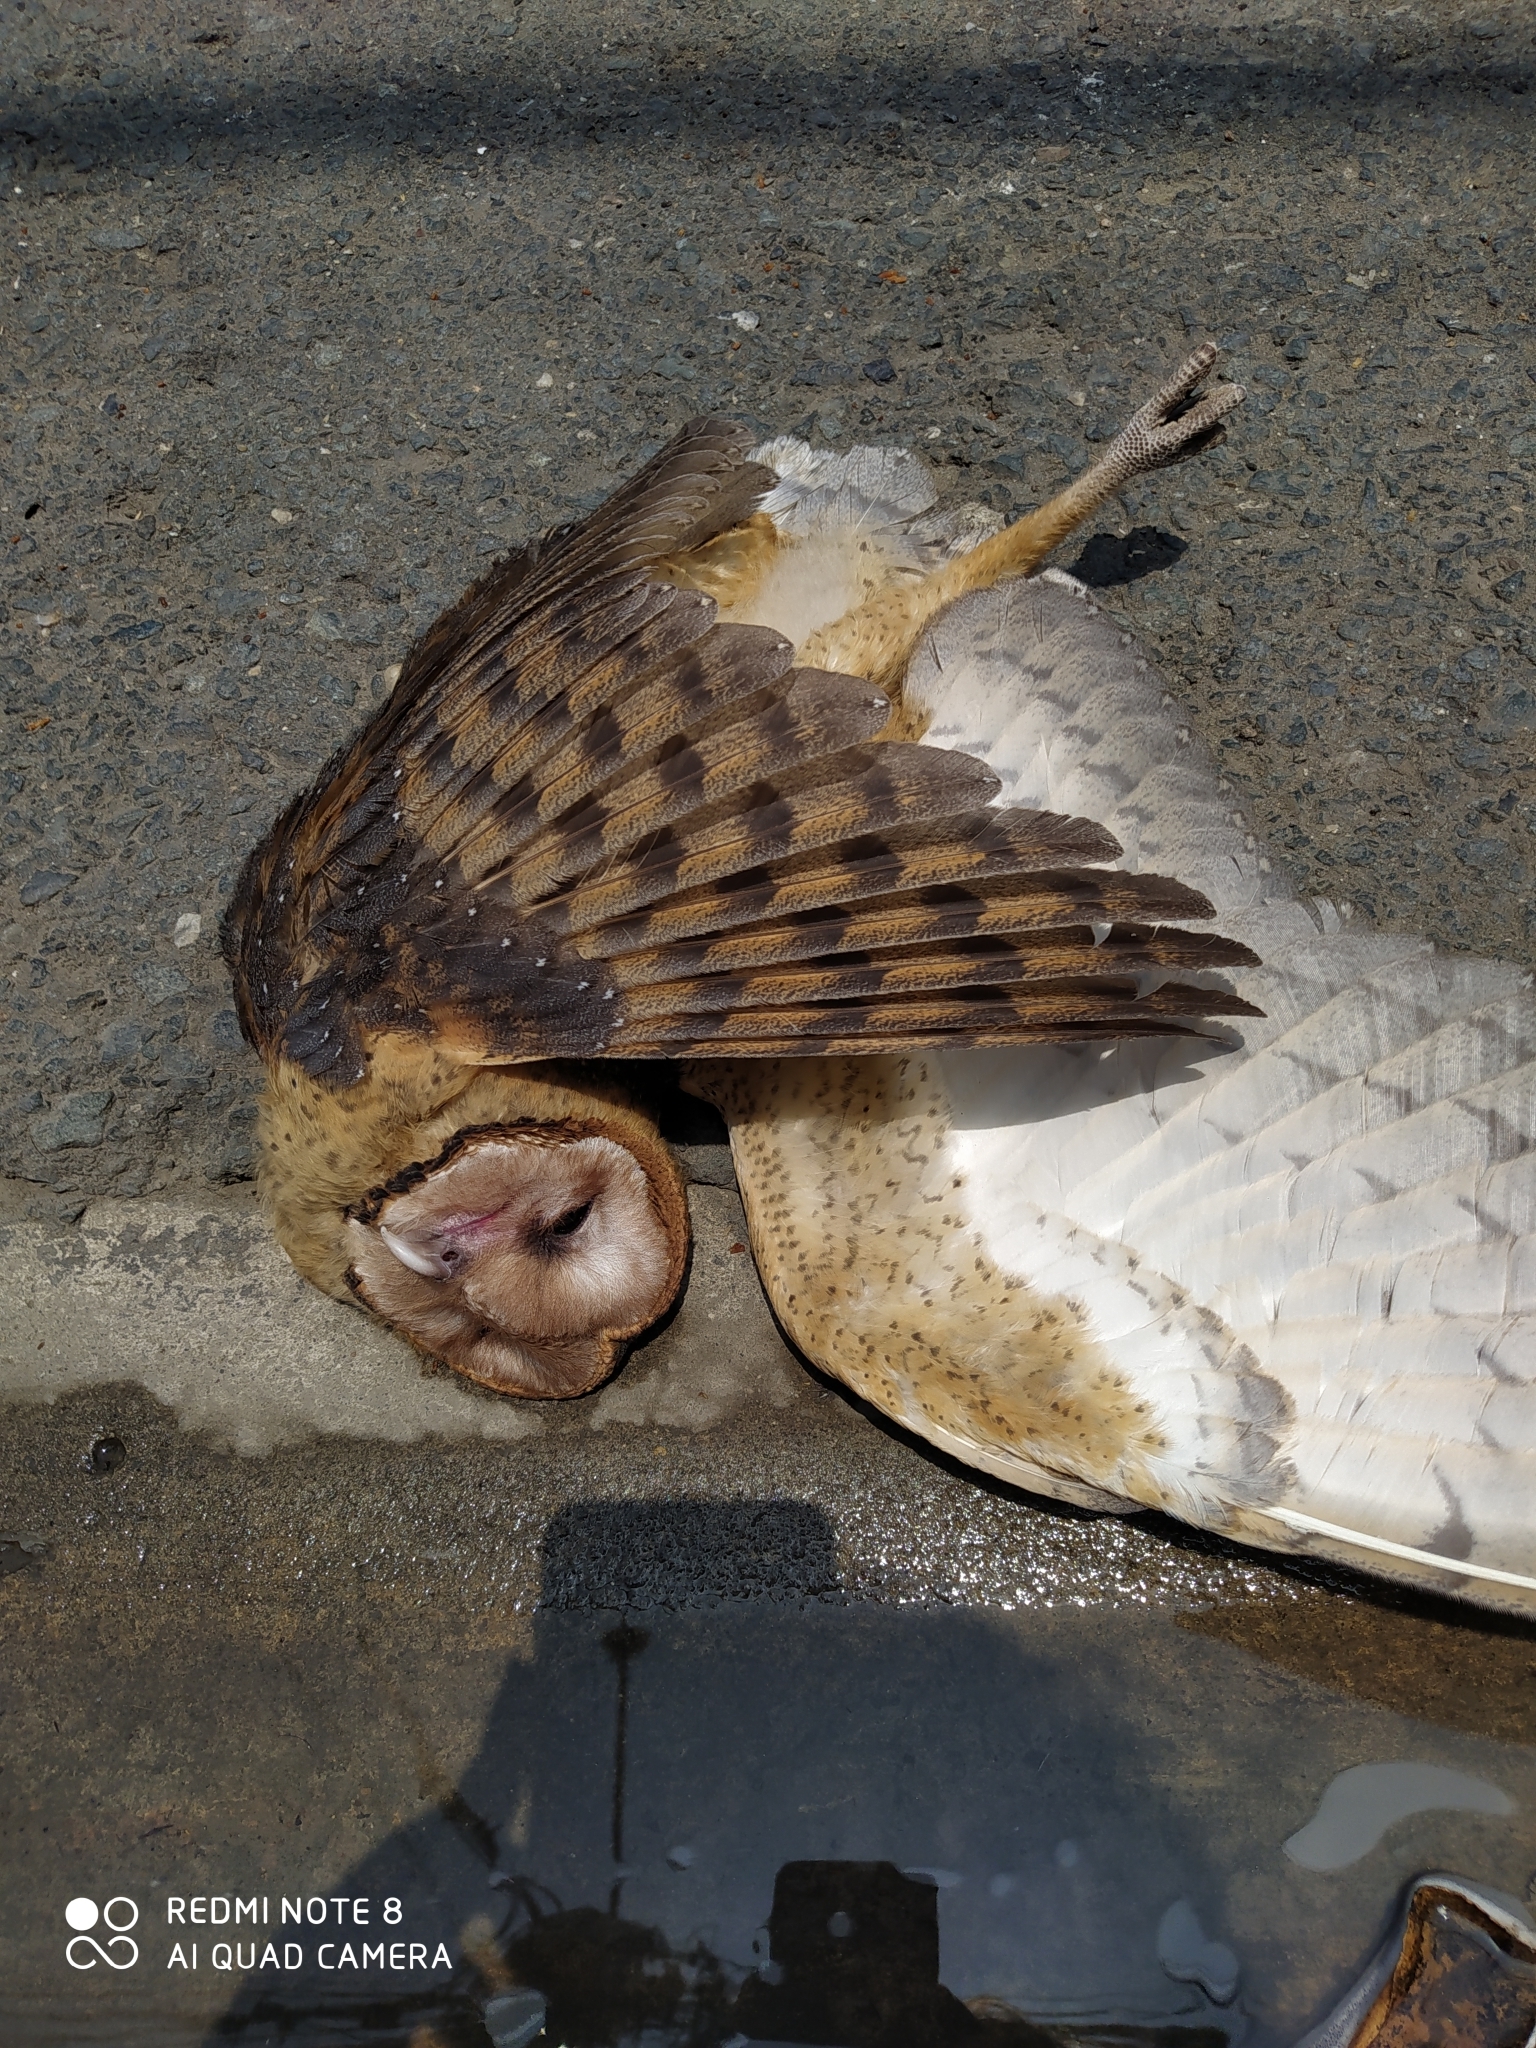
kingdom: Animalia
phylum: Chordata
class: Aves
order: Strigiformes
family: Tytonidae
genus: Tyto
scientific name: Tyto alba
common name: Barn owl
